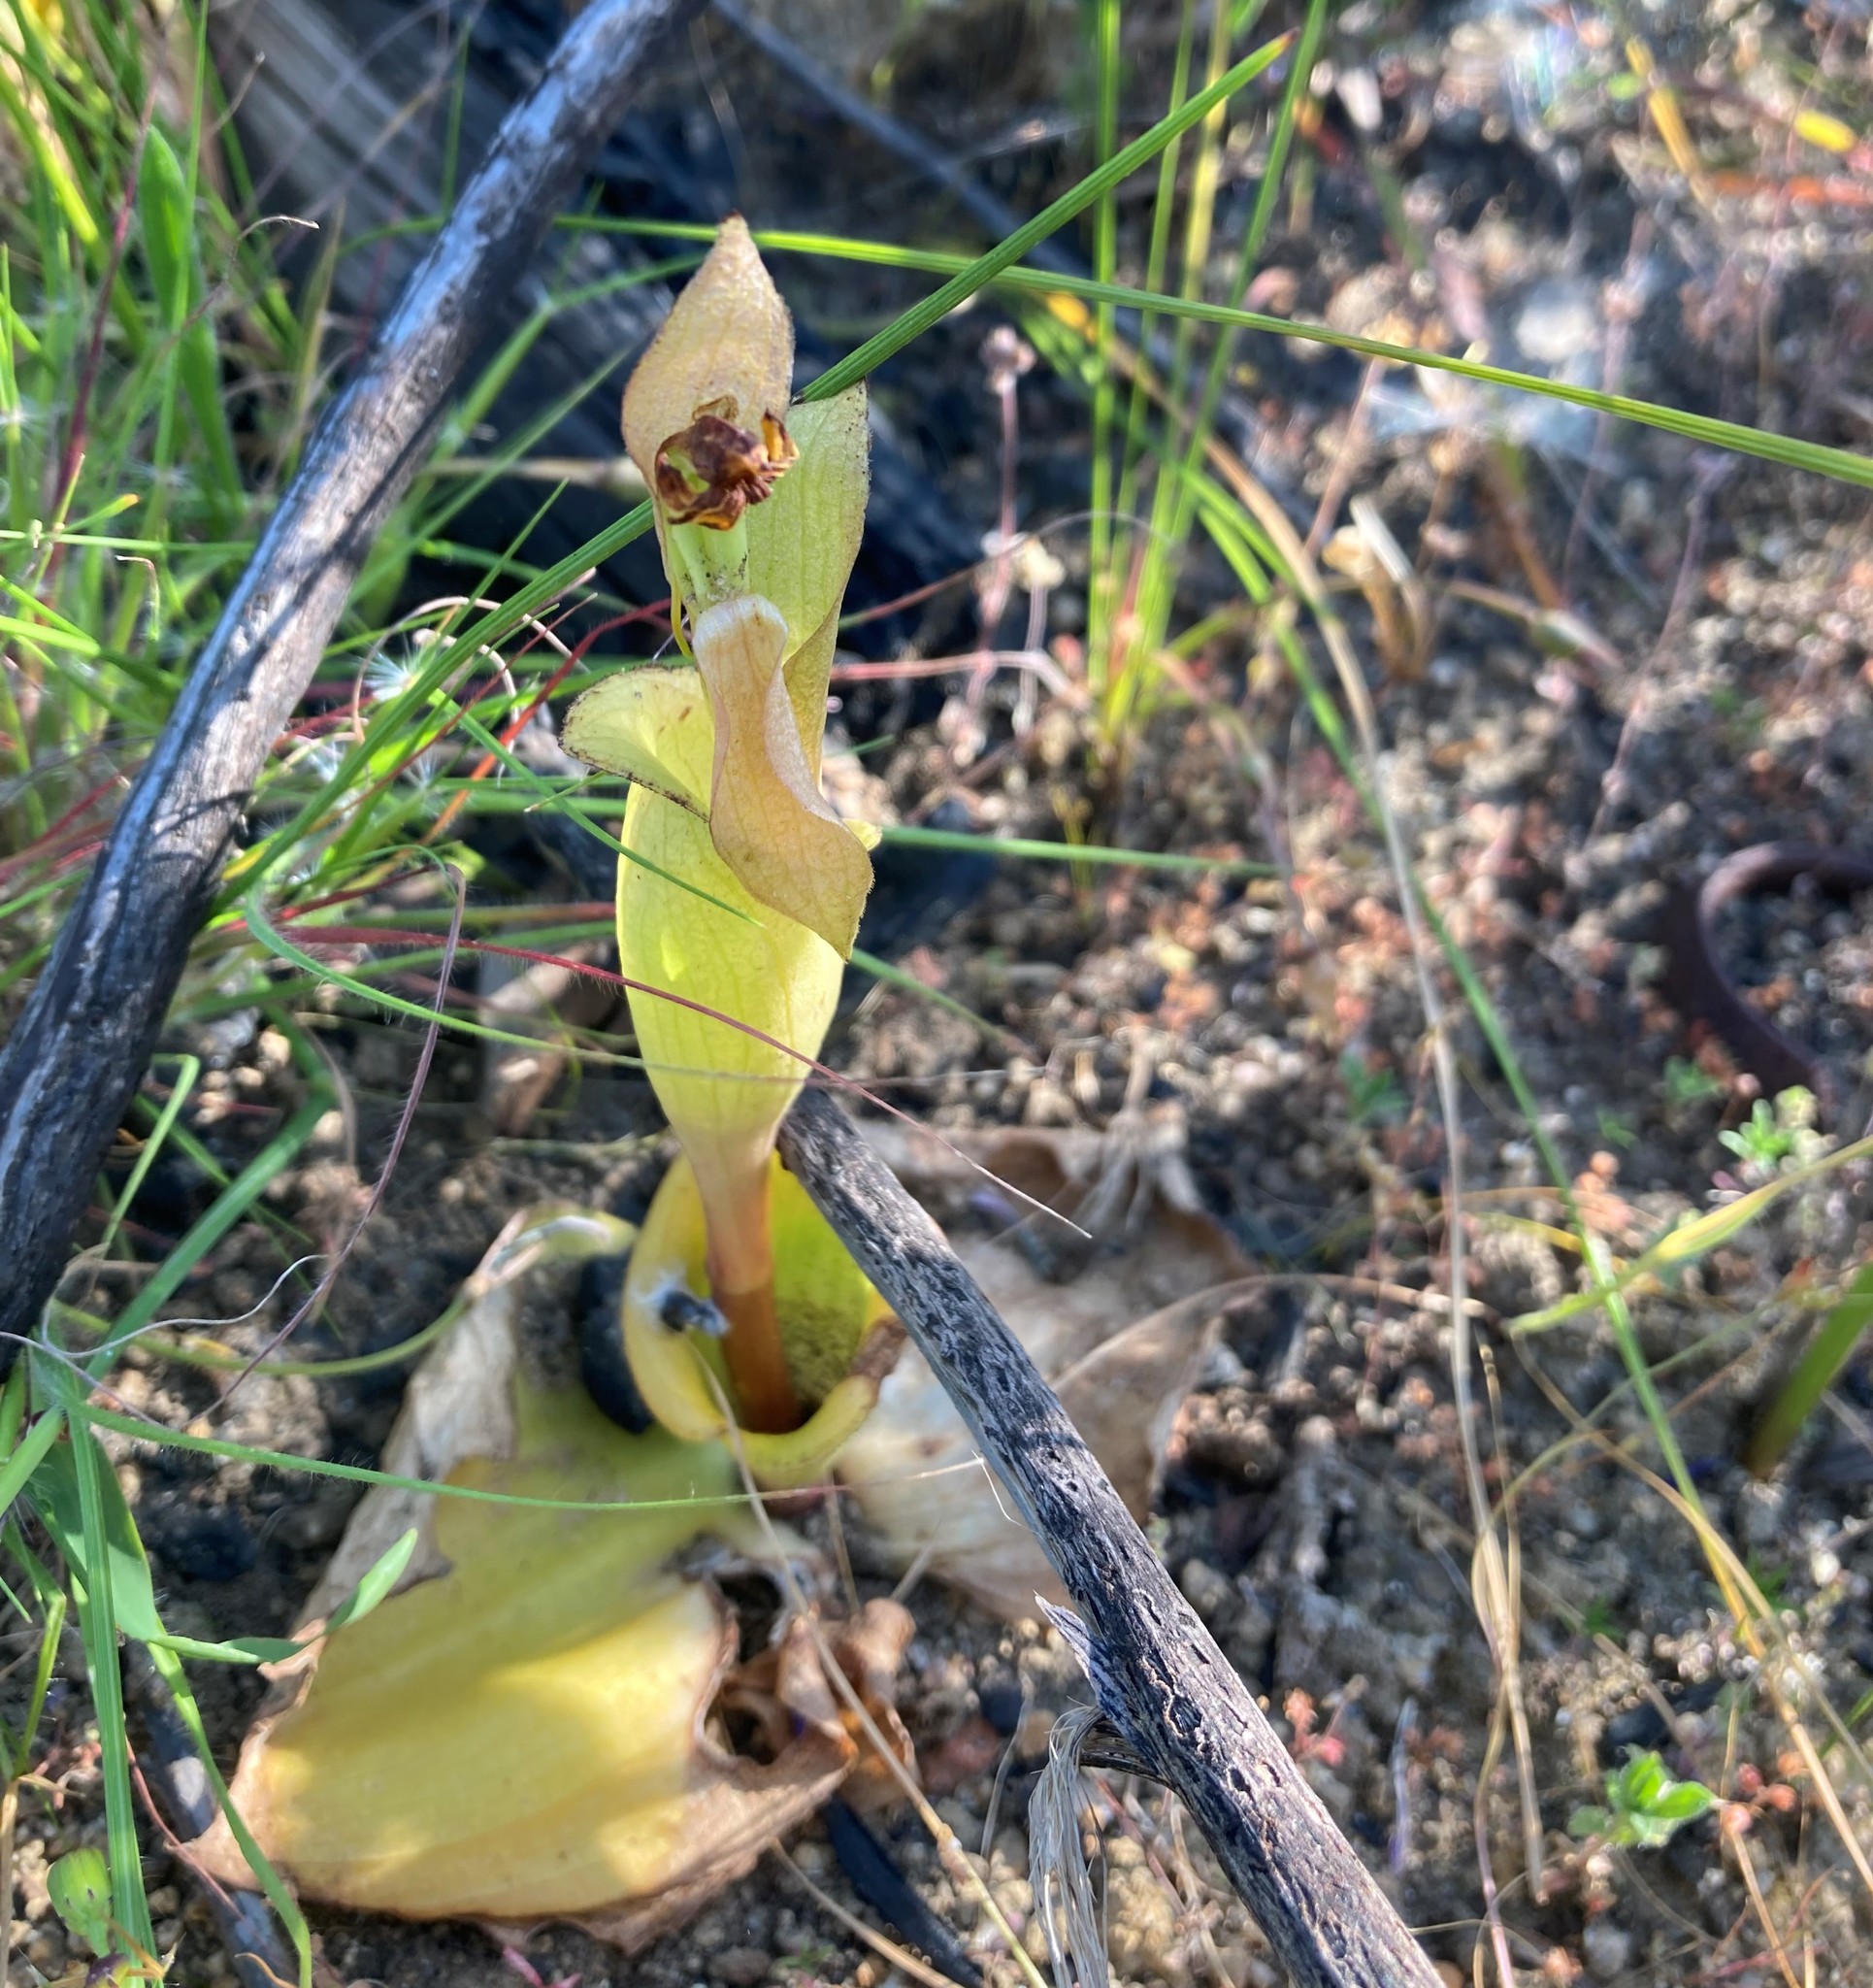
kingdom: Plantae
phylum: Tracheophyta
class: Liliopsida
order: Asparagales
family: Orchidaceae
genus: Satyrium
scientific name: Satyrium bicorne
